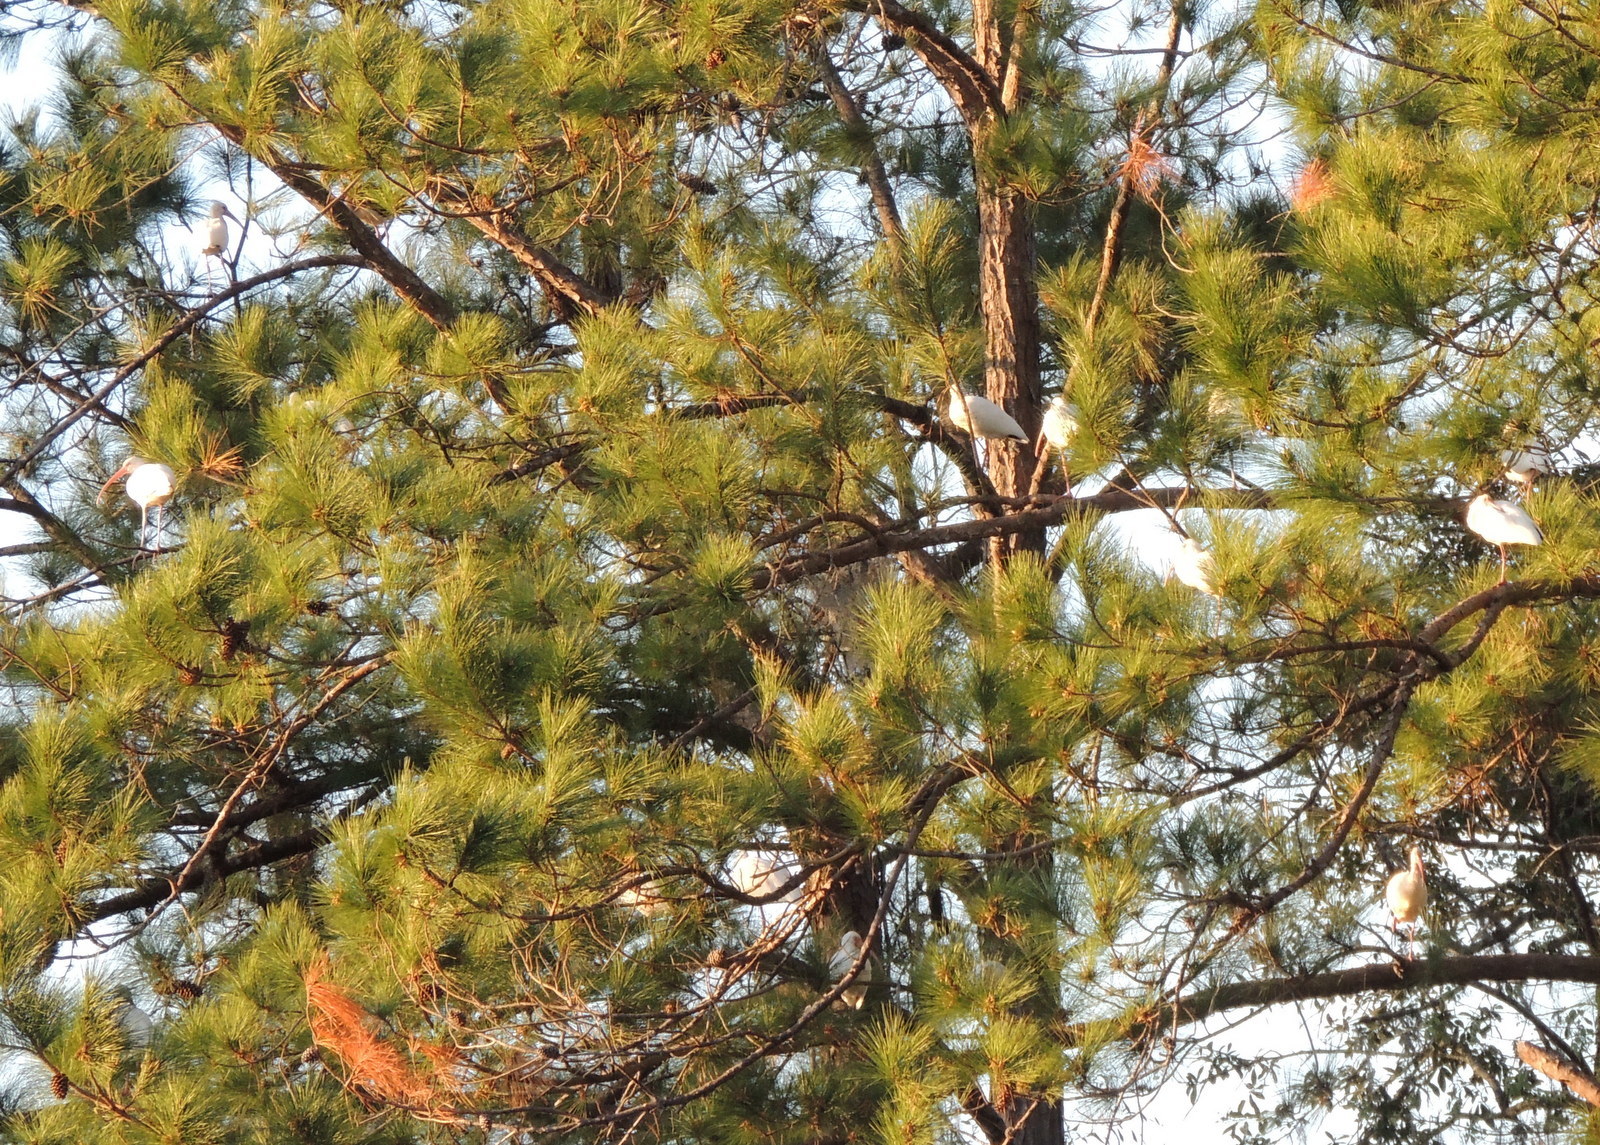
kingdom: Animalia
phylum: Chordata
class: Aves
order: Pelecaniformes
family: Threskiornithidae
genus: Eudocimus
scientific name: Eudocimus albus
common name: White ibis
